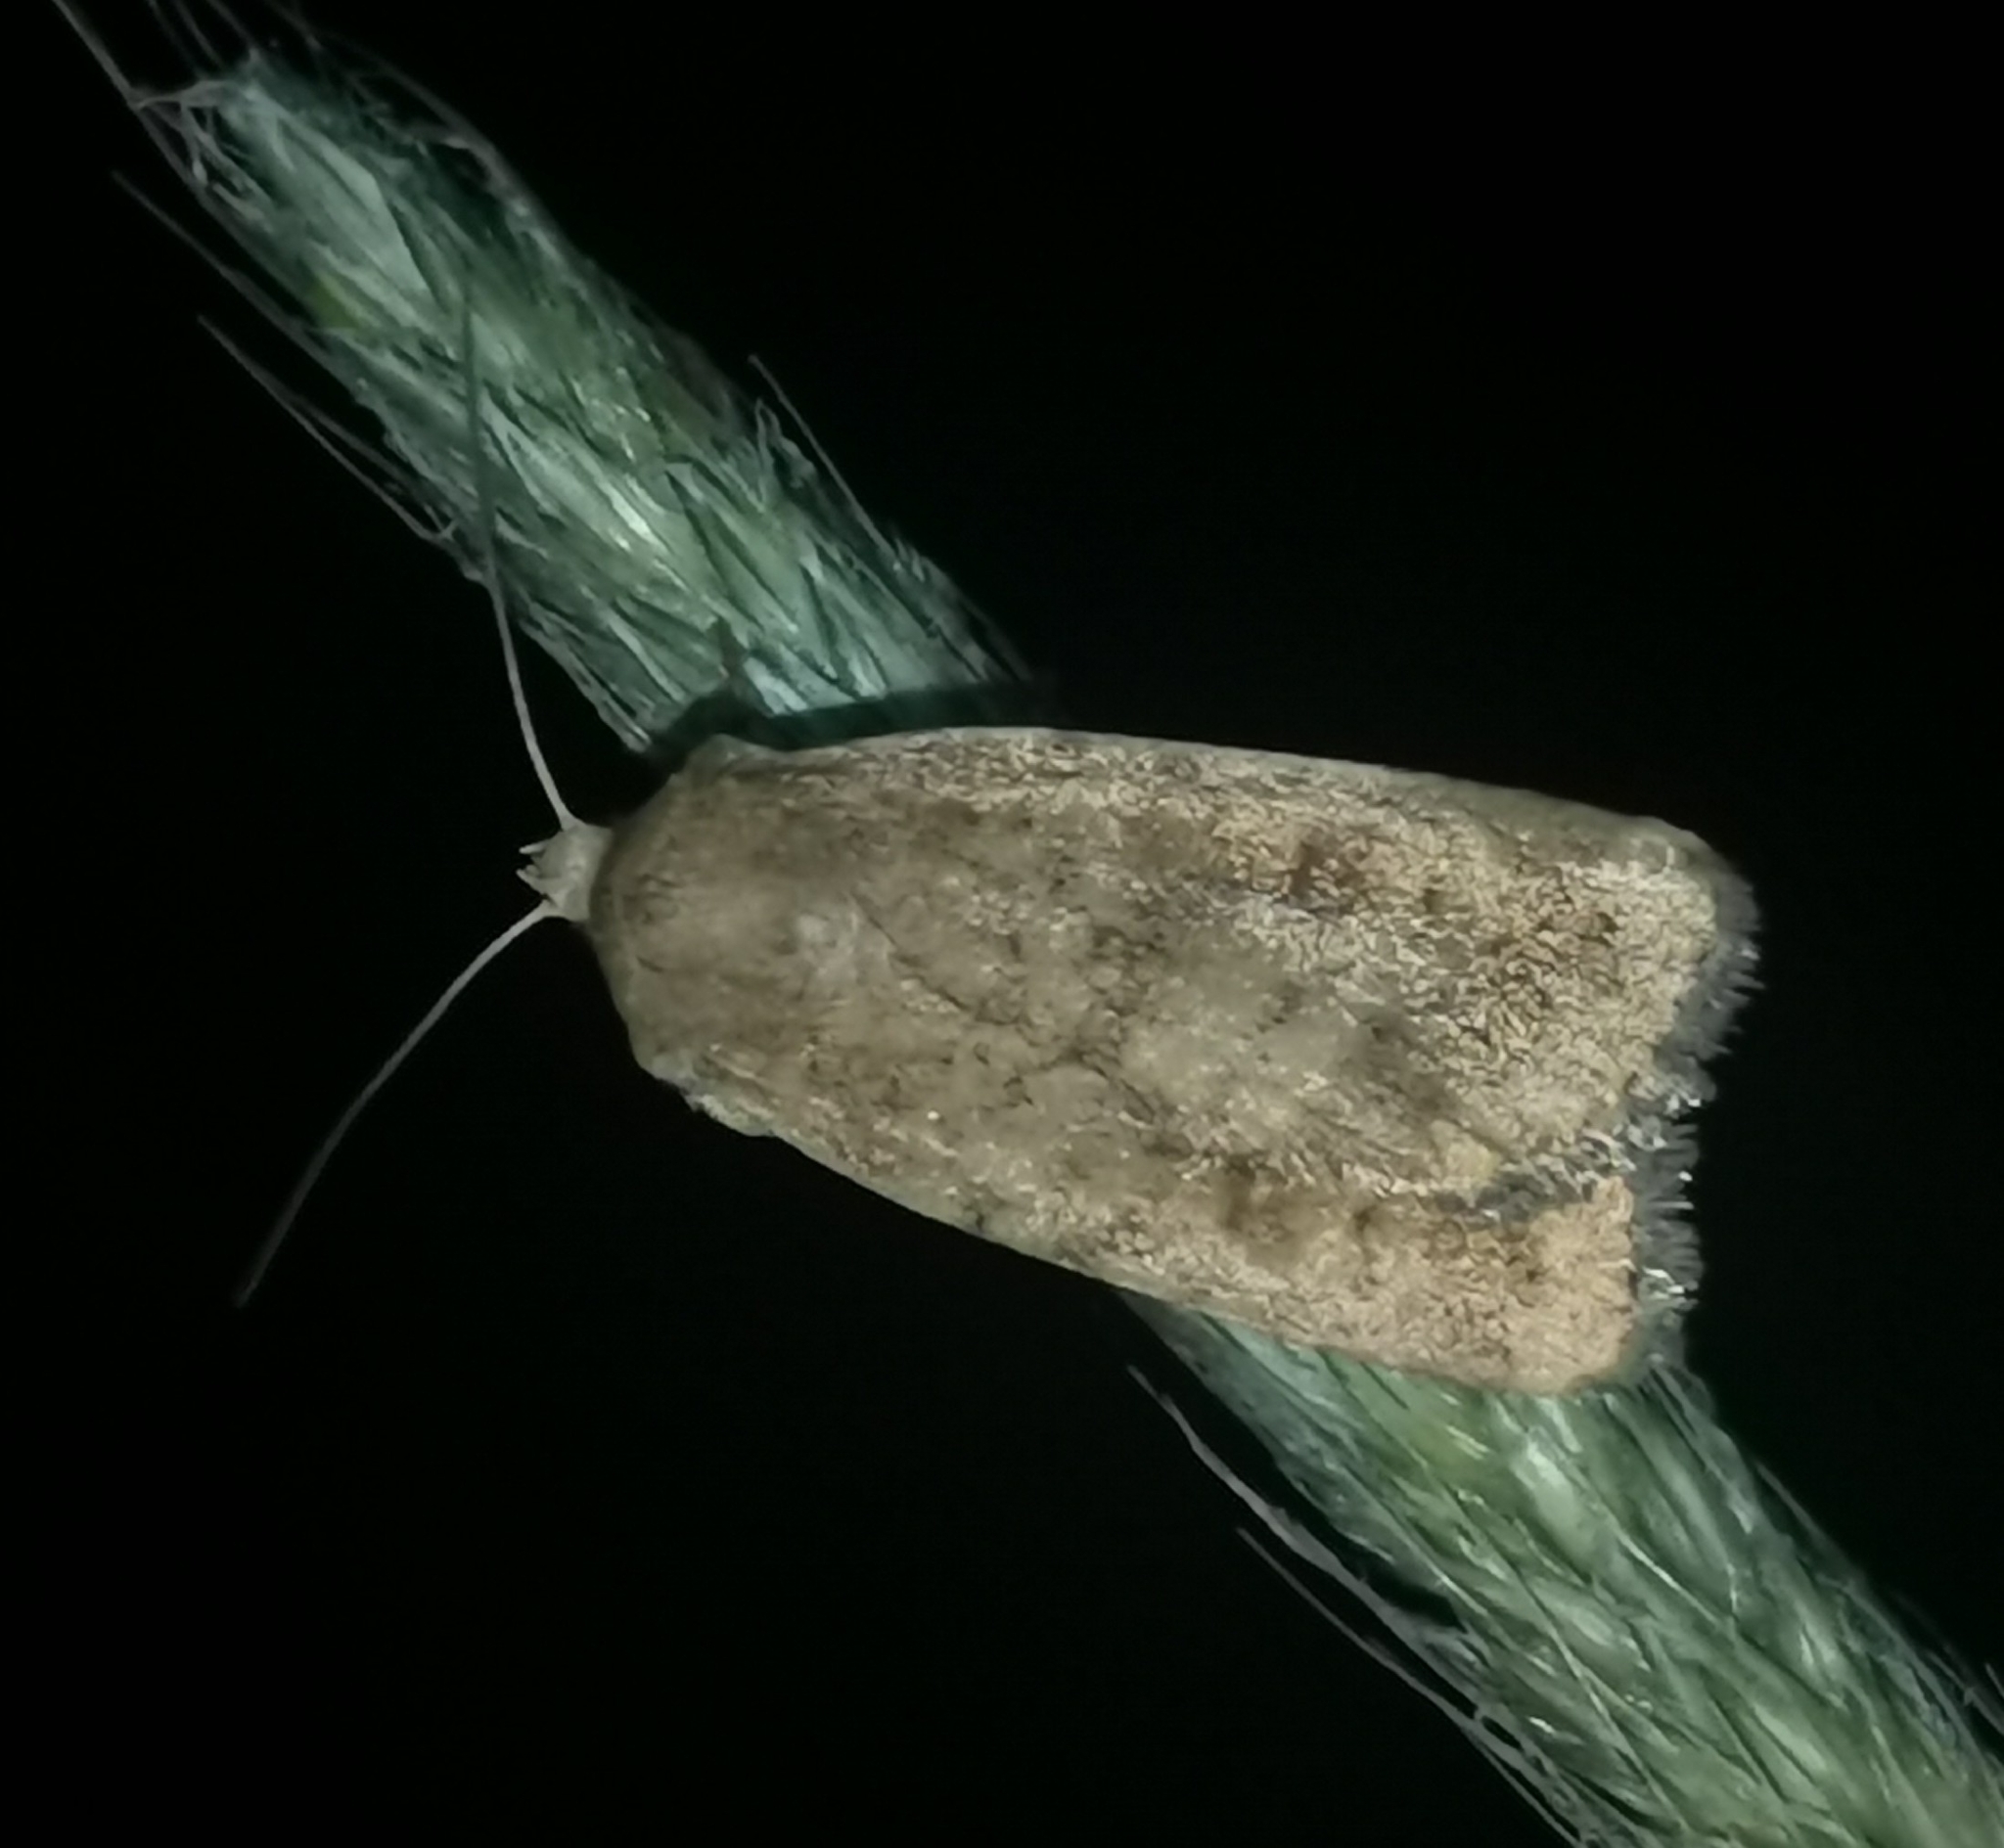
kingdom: Animalia
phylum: Arthropoda
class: Insecta
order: Lepidoptera
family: Noctuidae
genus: Caradrina
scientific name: Caradrina morpheus
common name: Mottled rustic
